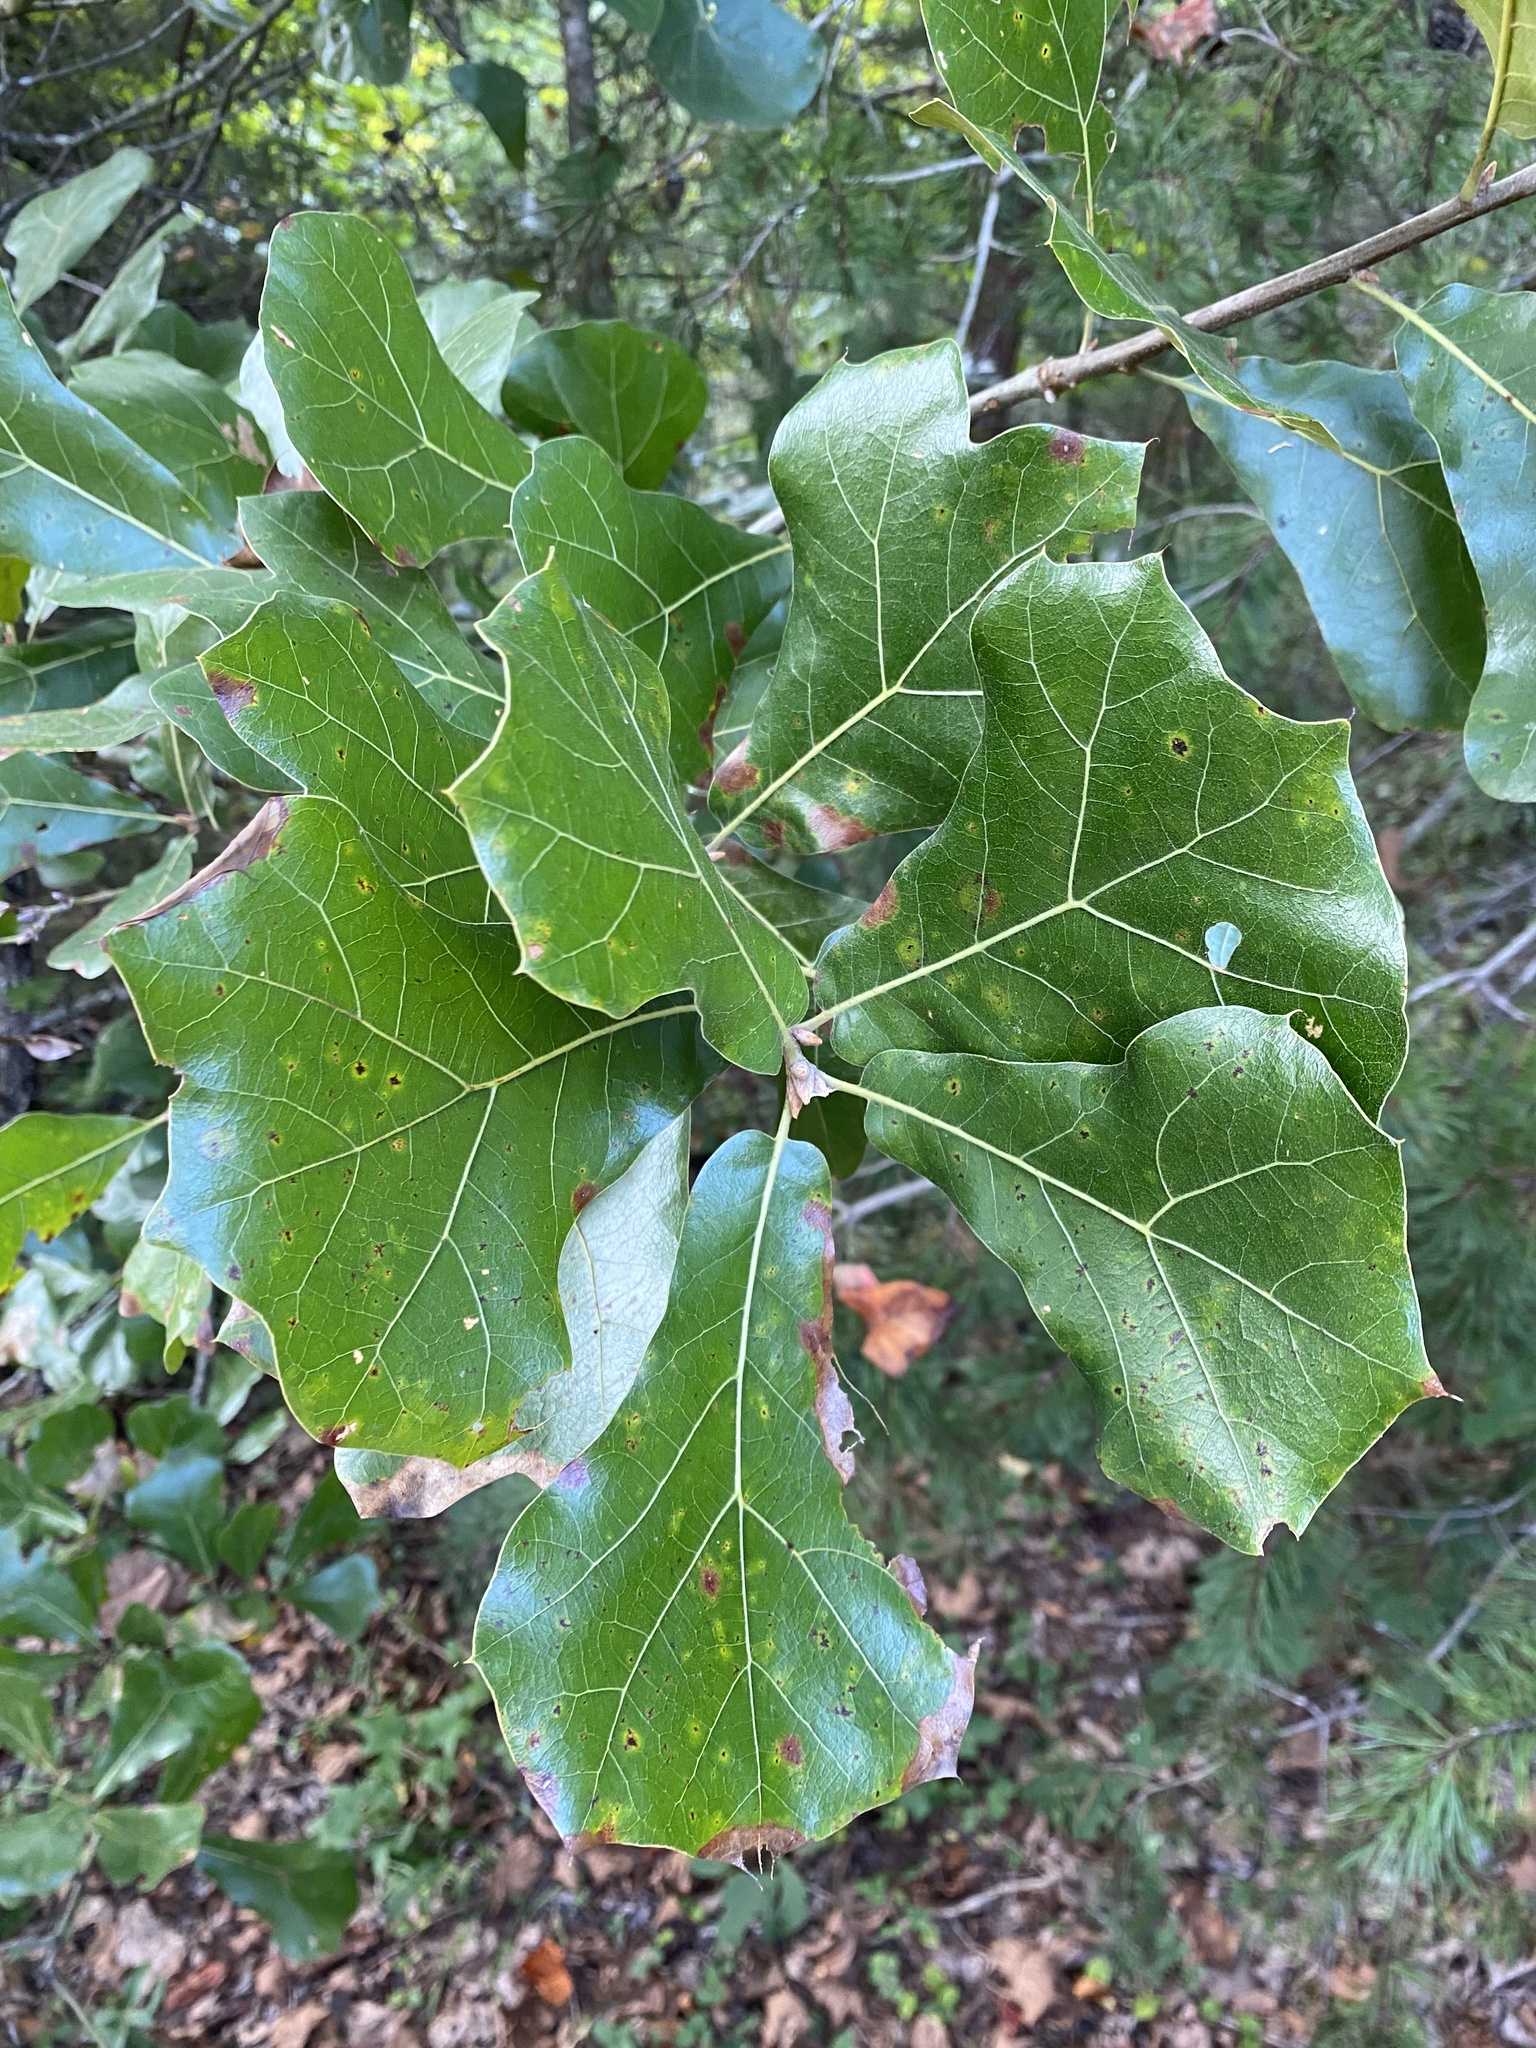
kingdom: Plantae
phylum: Tracheophyta
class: Magnoliopsida
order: Fagales
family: Fagaceae
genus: Quercus
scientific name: Quercus marilandica
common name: Blackjack oak
